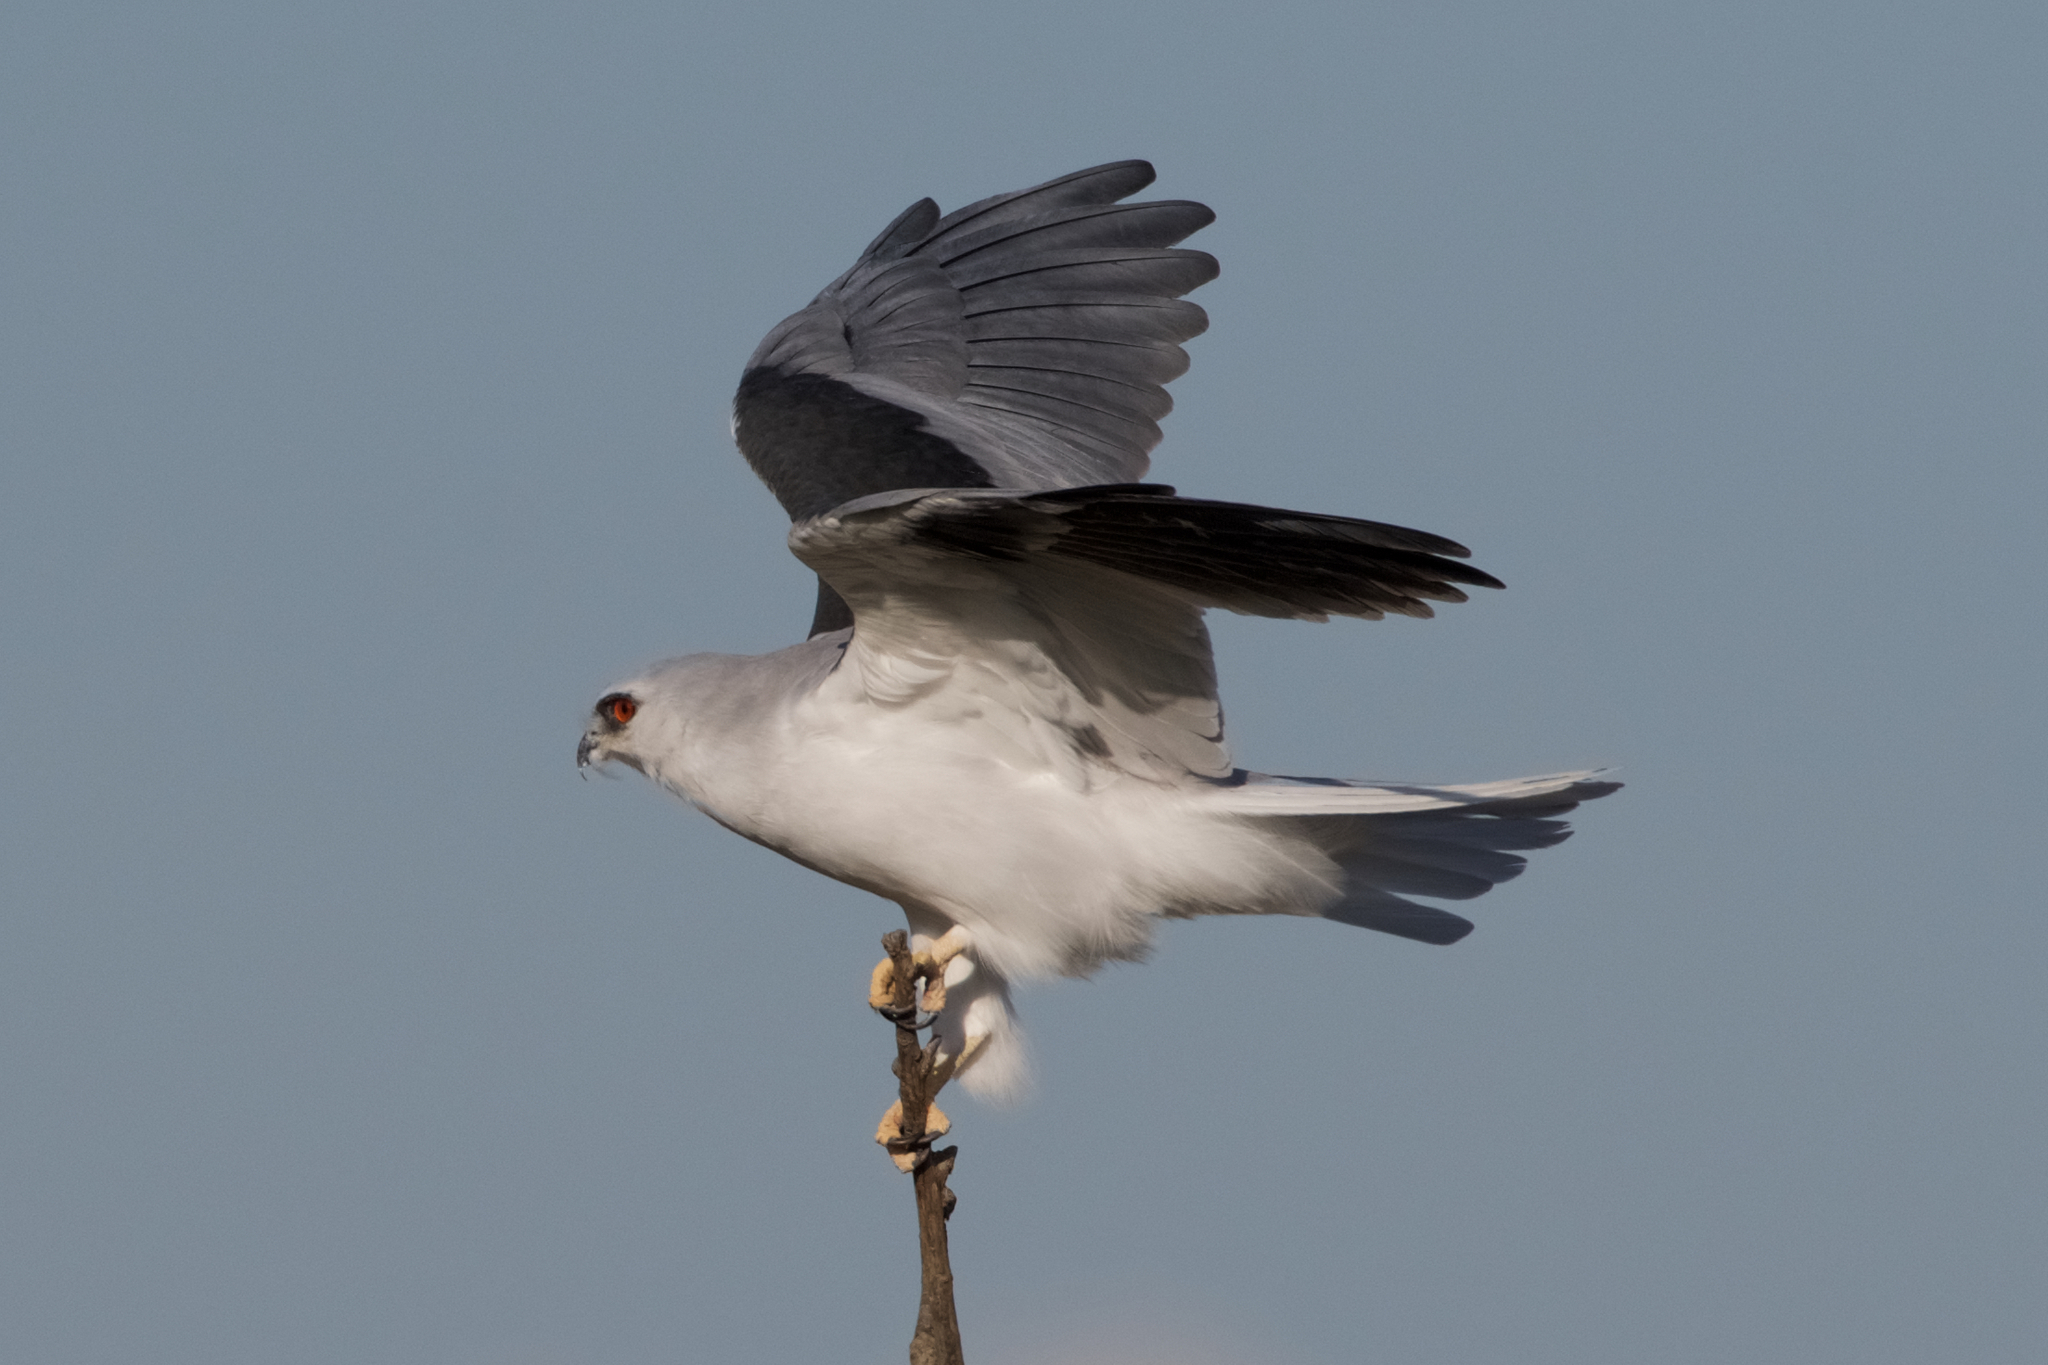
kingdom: Animalia
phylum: Chordata
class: Aves
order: Accipitriformes
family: Accipitridae
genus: Elanus
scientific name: Elanus leucurus
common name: White-tailed kite
